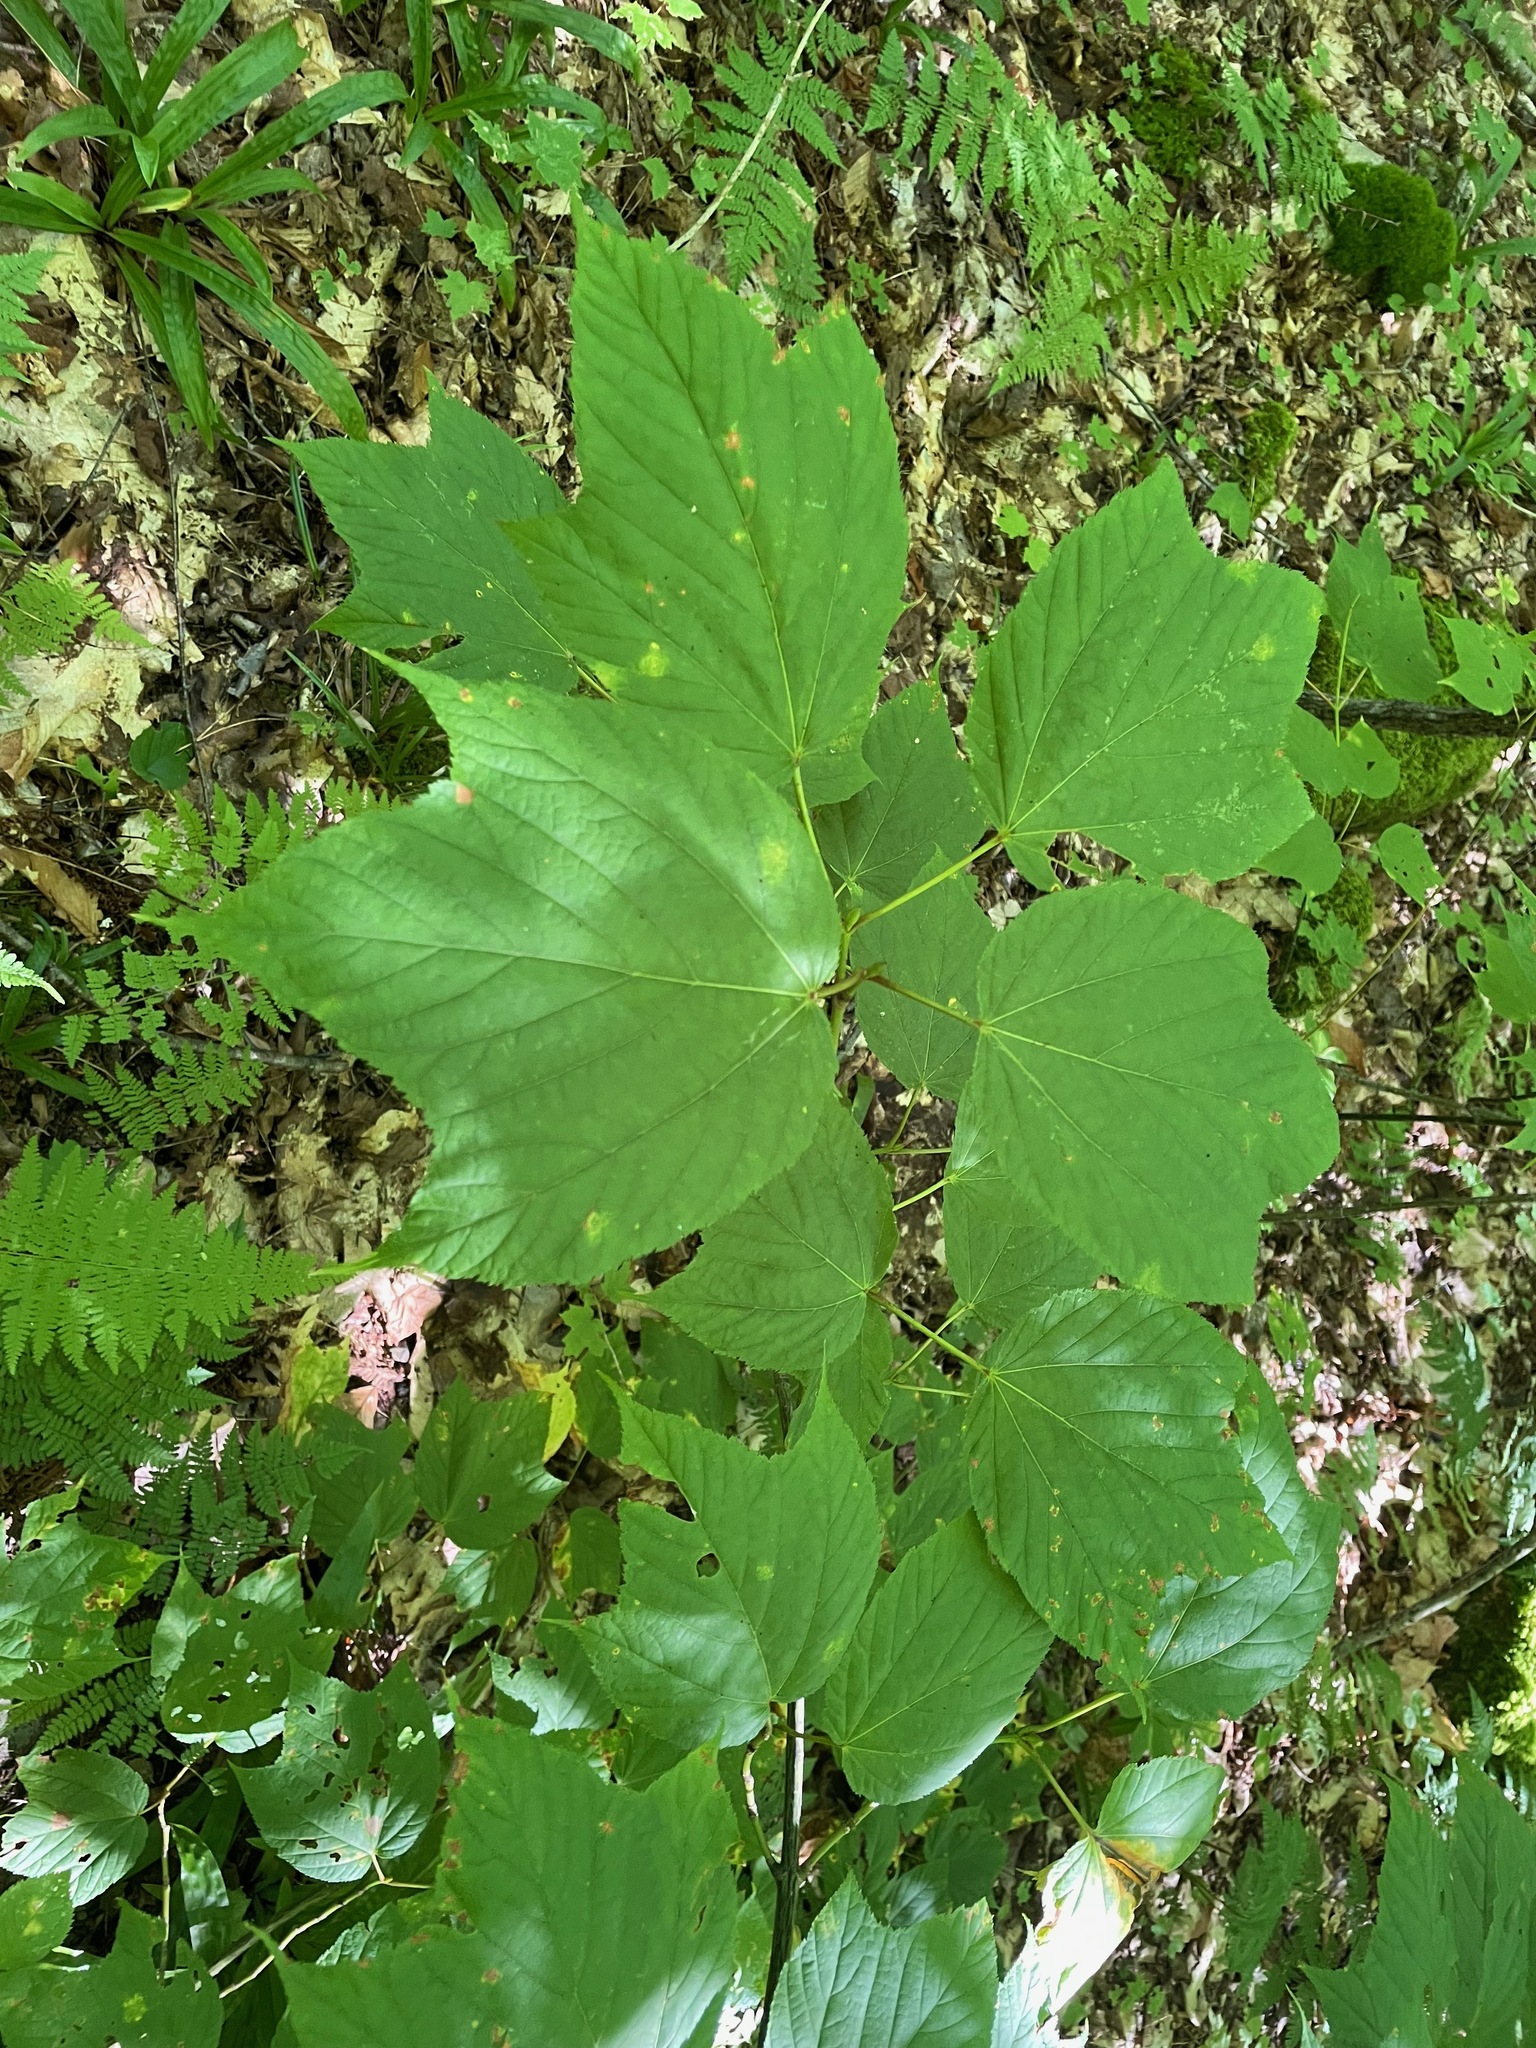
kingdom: Plantae
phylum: Tracheophyta
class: Magnoliopsida
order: Sapindales
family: Sapindaceae
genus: Acer
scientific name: Acer pensylvanicum
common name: Moosewood
